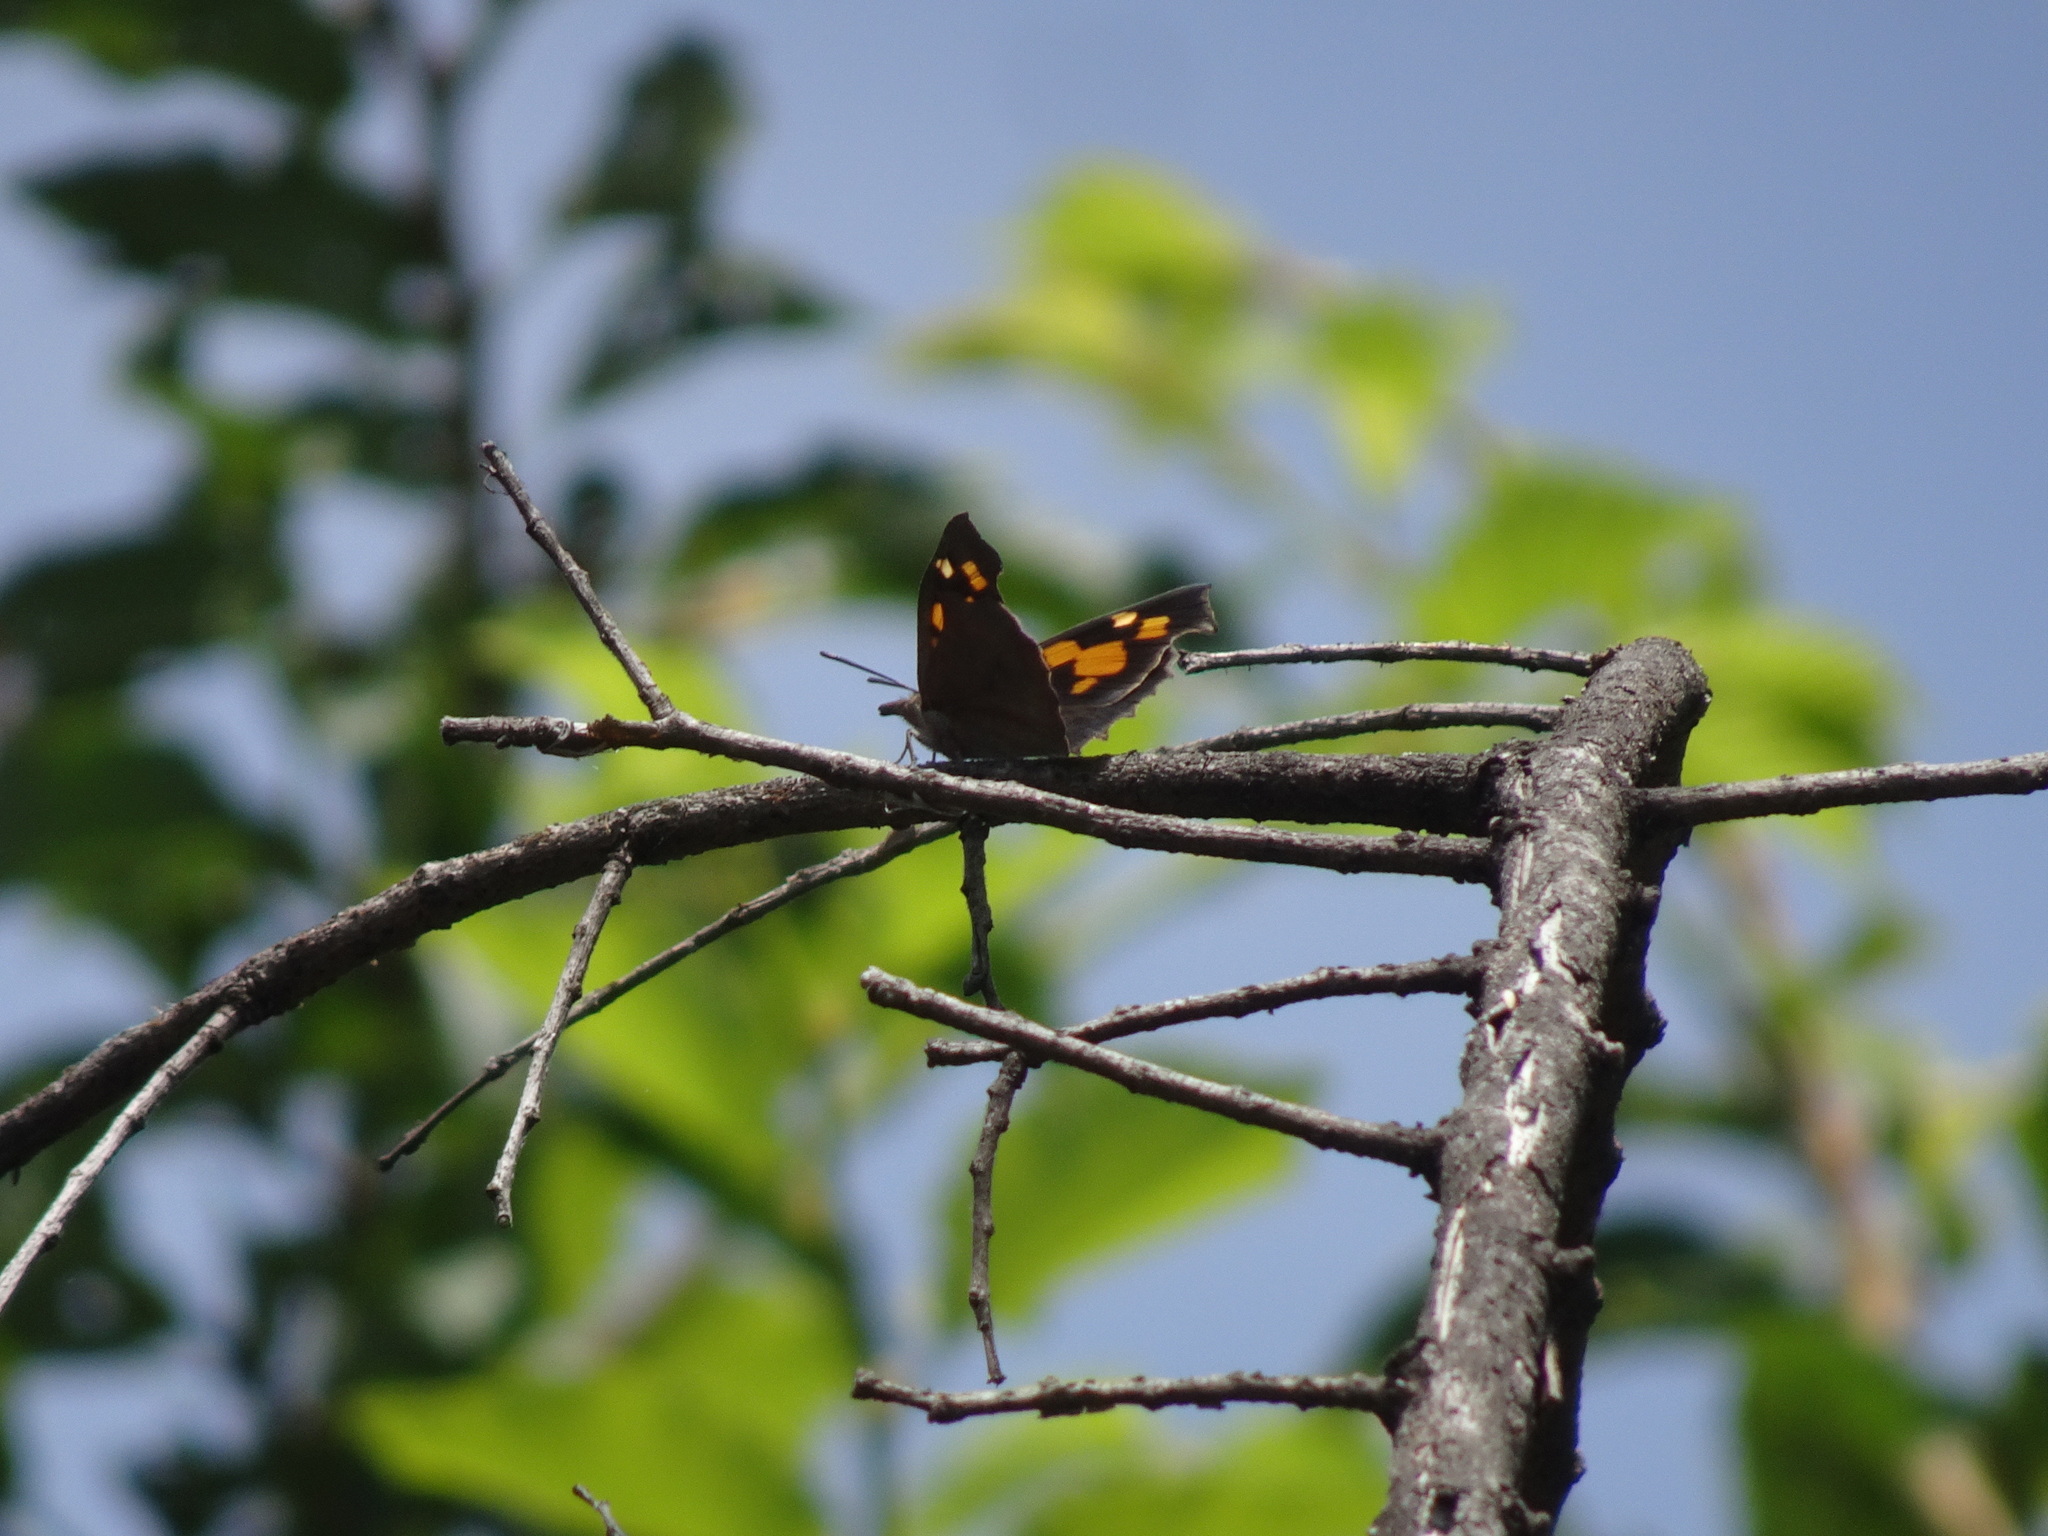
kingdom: Animalia
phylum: Arthropoda
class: Insecta
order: Lepidoptera
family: Nymphalidae
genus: Libythea
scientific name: Libythea celtis
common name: Nettle-tree butterfly
